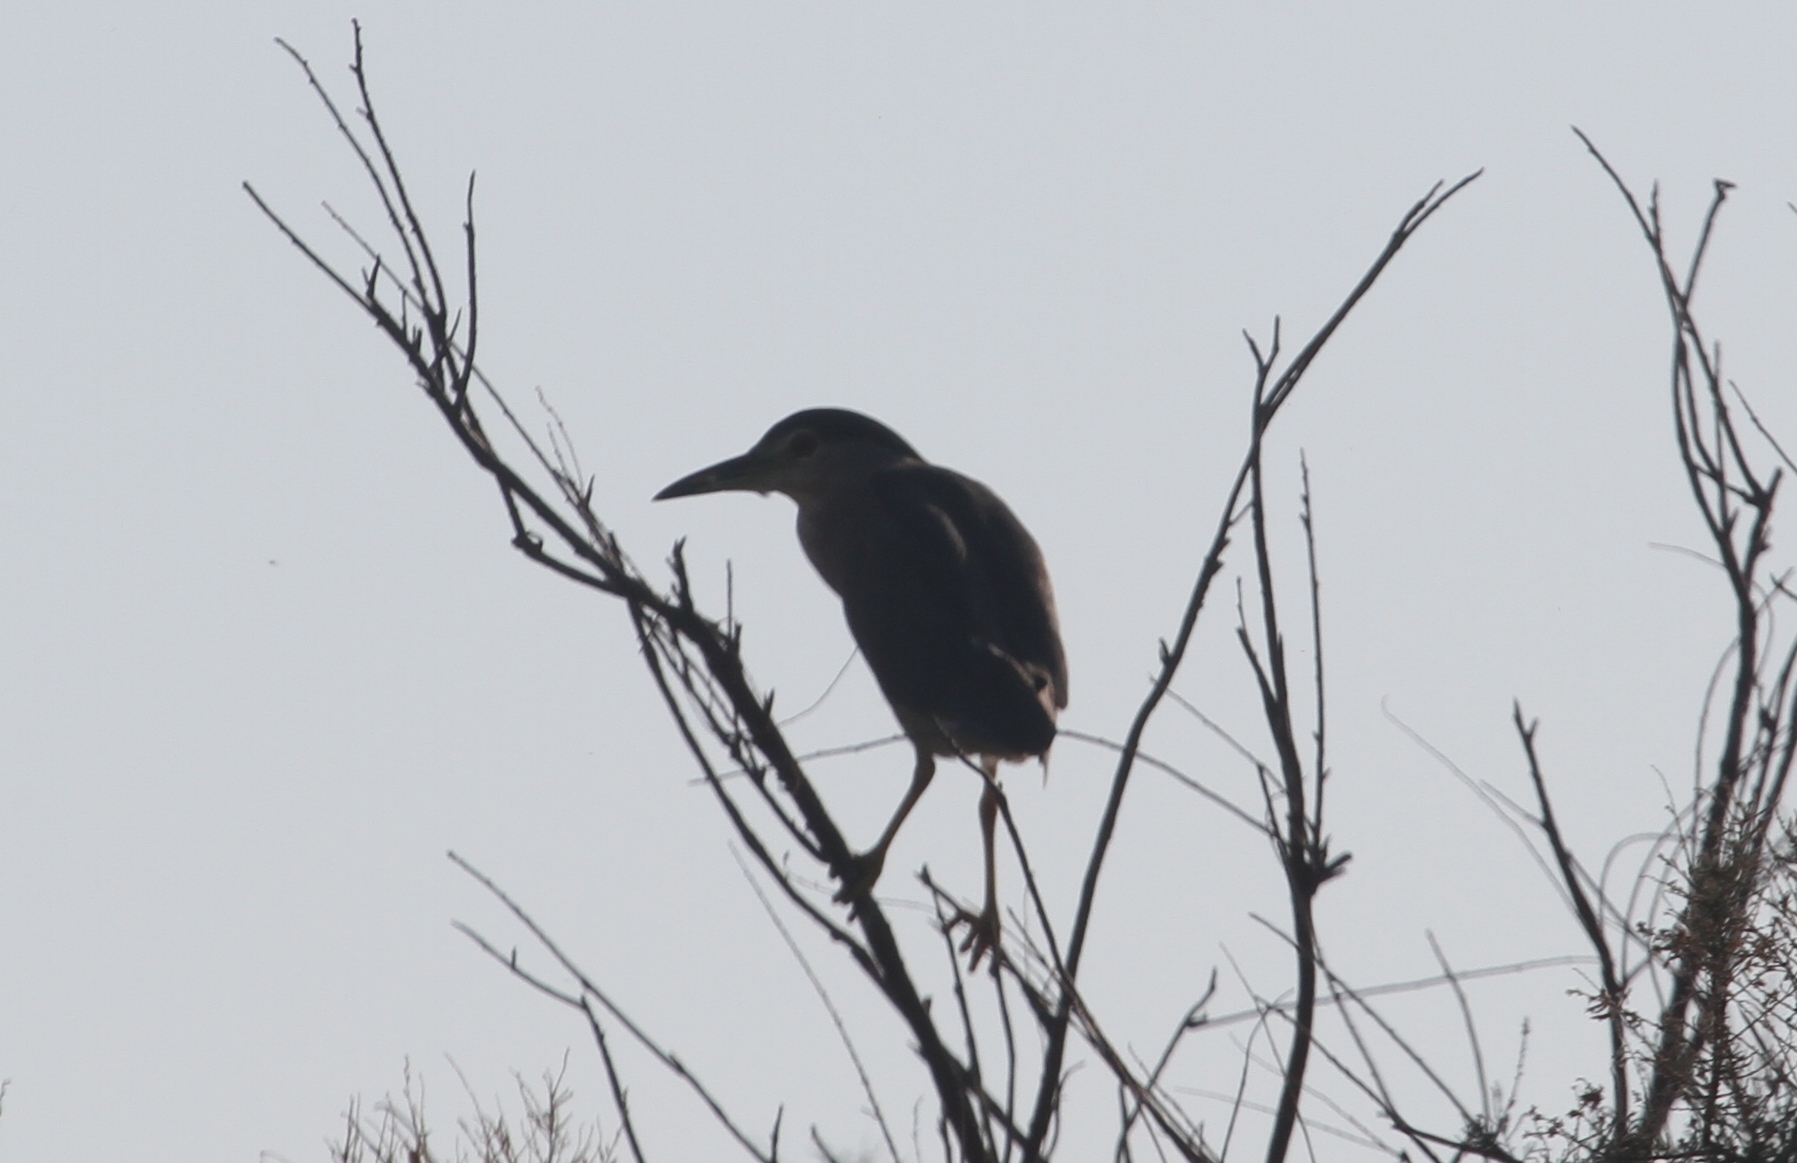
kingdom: Animalia
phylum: Chordata
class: Aves
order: Pelecaniformes
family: Ardeidae
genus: Nycticorax
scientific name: Nycticorax nycticorax
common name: Black-crowned night heron
